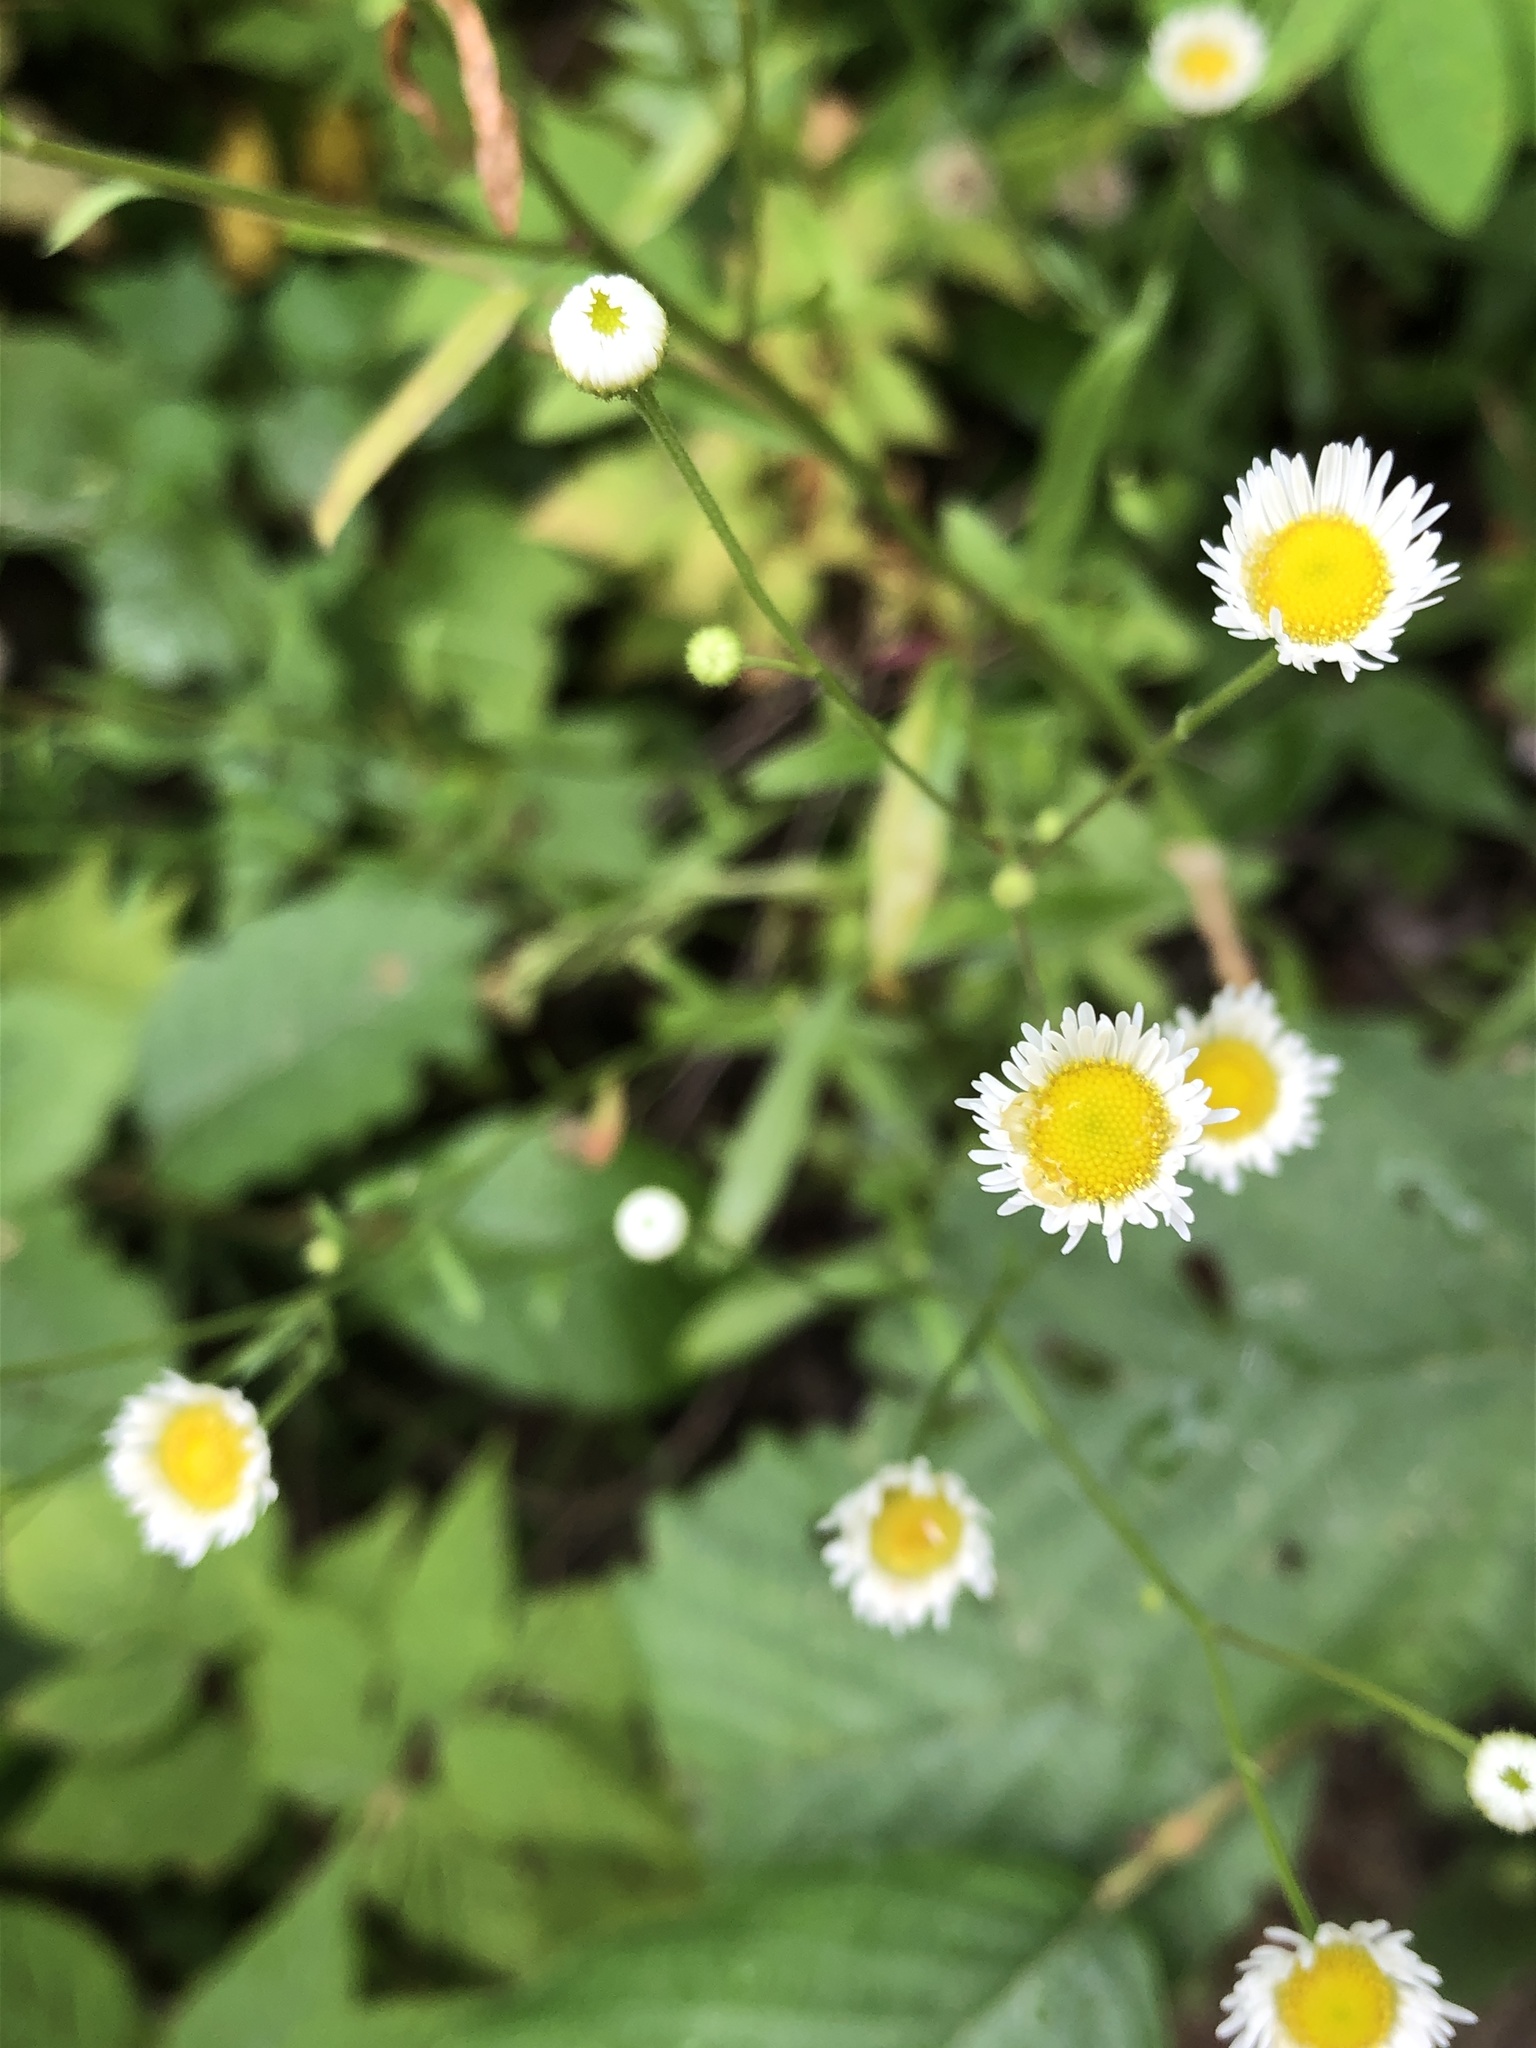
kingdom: Plantae
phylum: Tracheophyta
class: Magnoliopsida
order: Asterales
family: Asteraceae
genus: Erigeron
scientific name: Erigeron strigosus
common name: Common eastern fleabane
